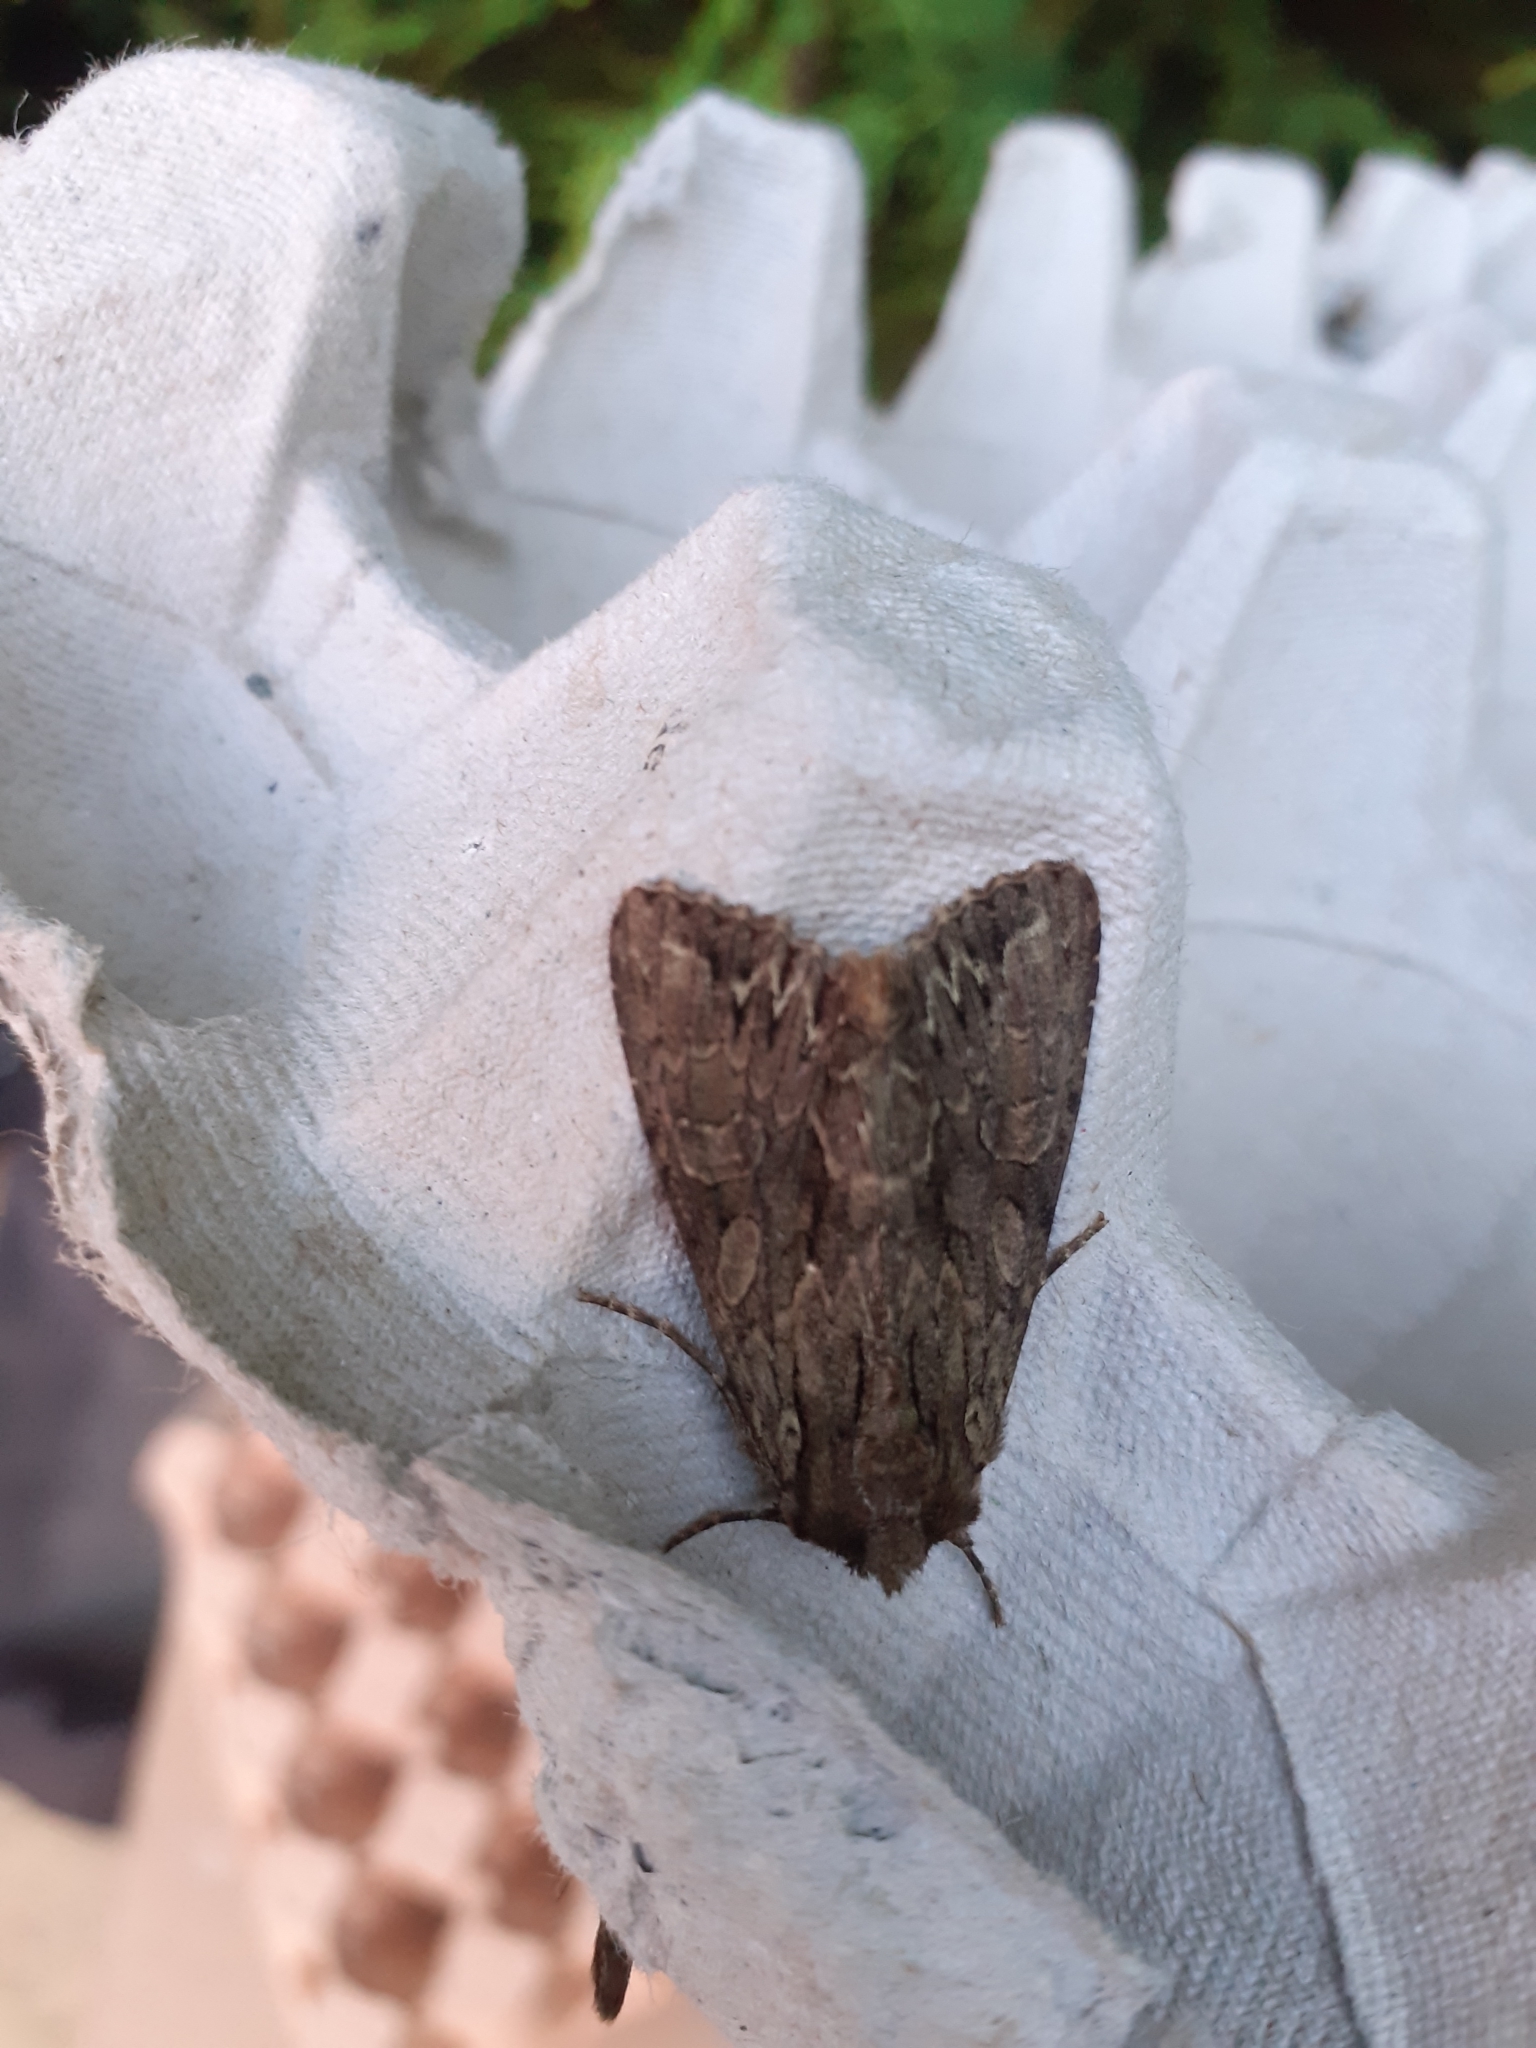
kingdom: Animalia
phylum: Arthropoda
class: Insecta
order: Lepidoptera
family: Noctuidae
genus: Apamea
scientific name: Apamea monoglypha
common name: Dark arches
